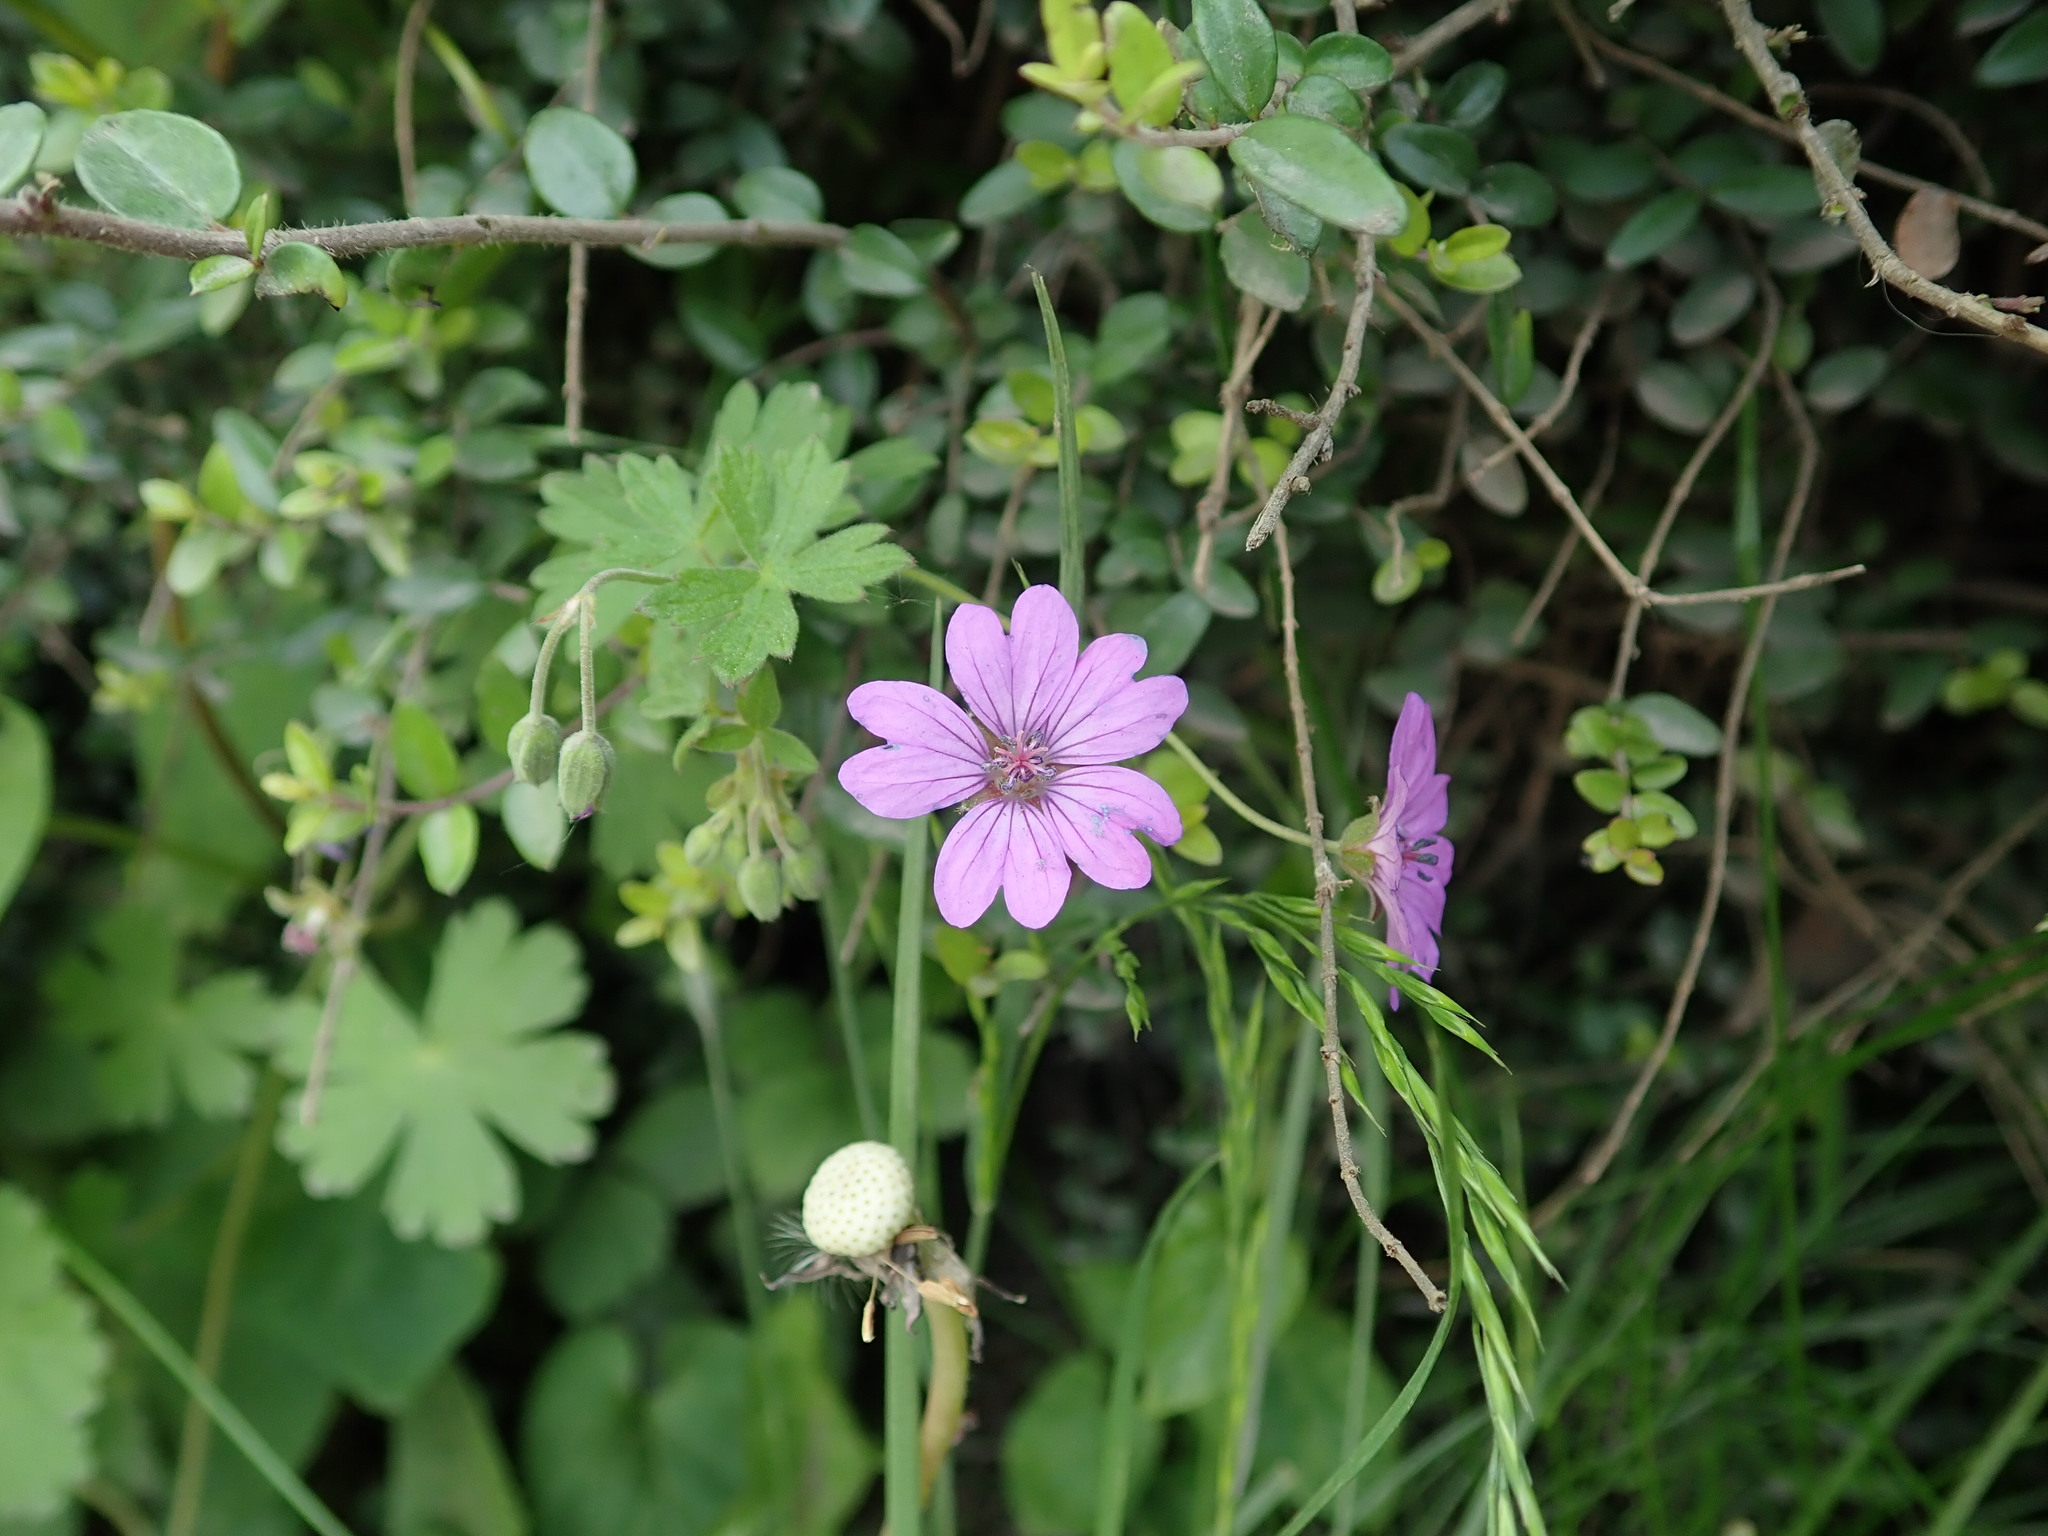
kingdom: Plantae
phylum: Tracheophyta
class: Magnoliopsida
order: Geraniales
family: Geraniaceae
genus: Geranium
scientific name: Geranium pyrenaicum
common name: Hedgerow crane's-bill
